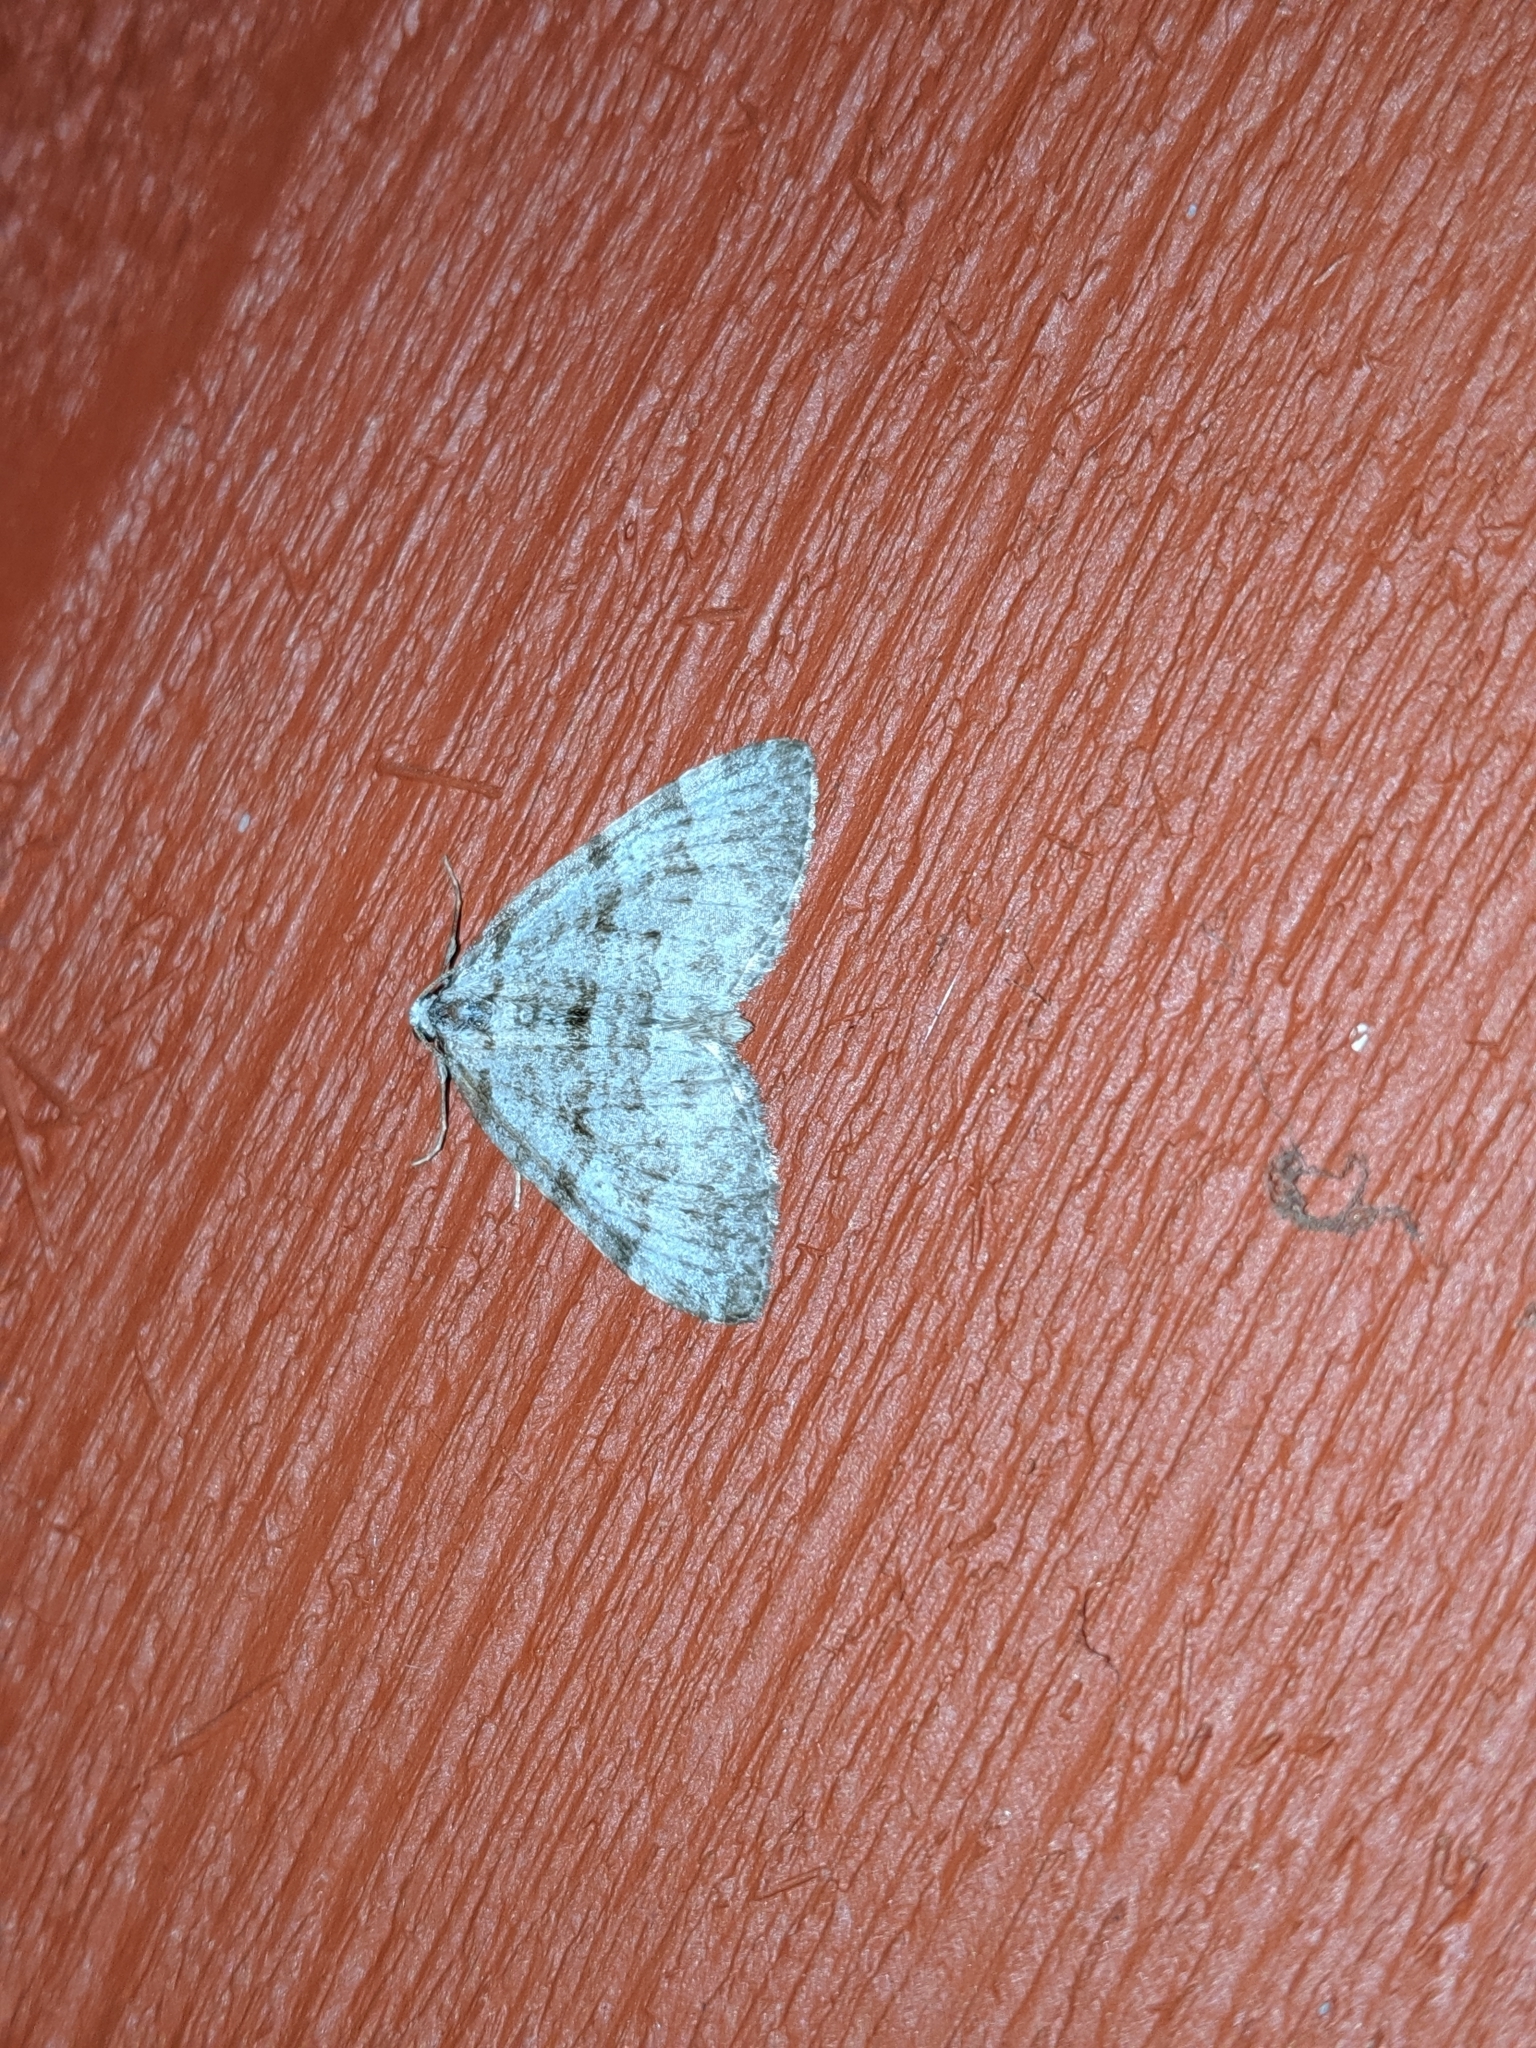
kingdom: Animalia
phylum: Arthropoda
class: Insecta
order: Lepidoptera
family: Geometridae
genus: Perizoma
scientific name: Perizoma curvilinea
